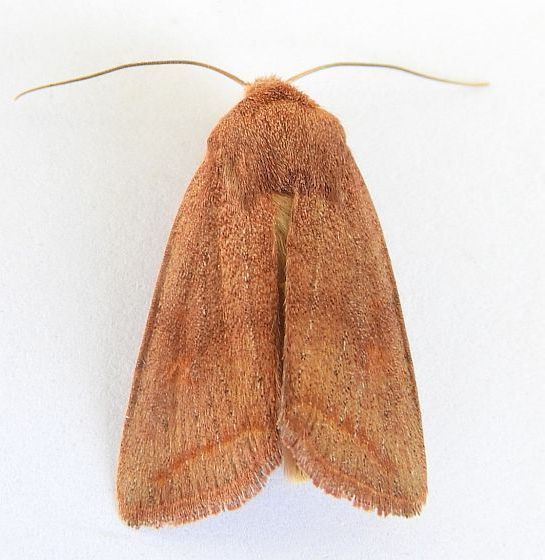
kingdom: Animalia
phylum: Arthropoda
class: Insecta
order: Lepidoptera
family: Noctuidae
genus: Eriopyga
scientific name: Eriopyga Hypotrix rubra
